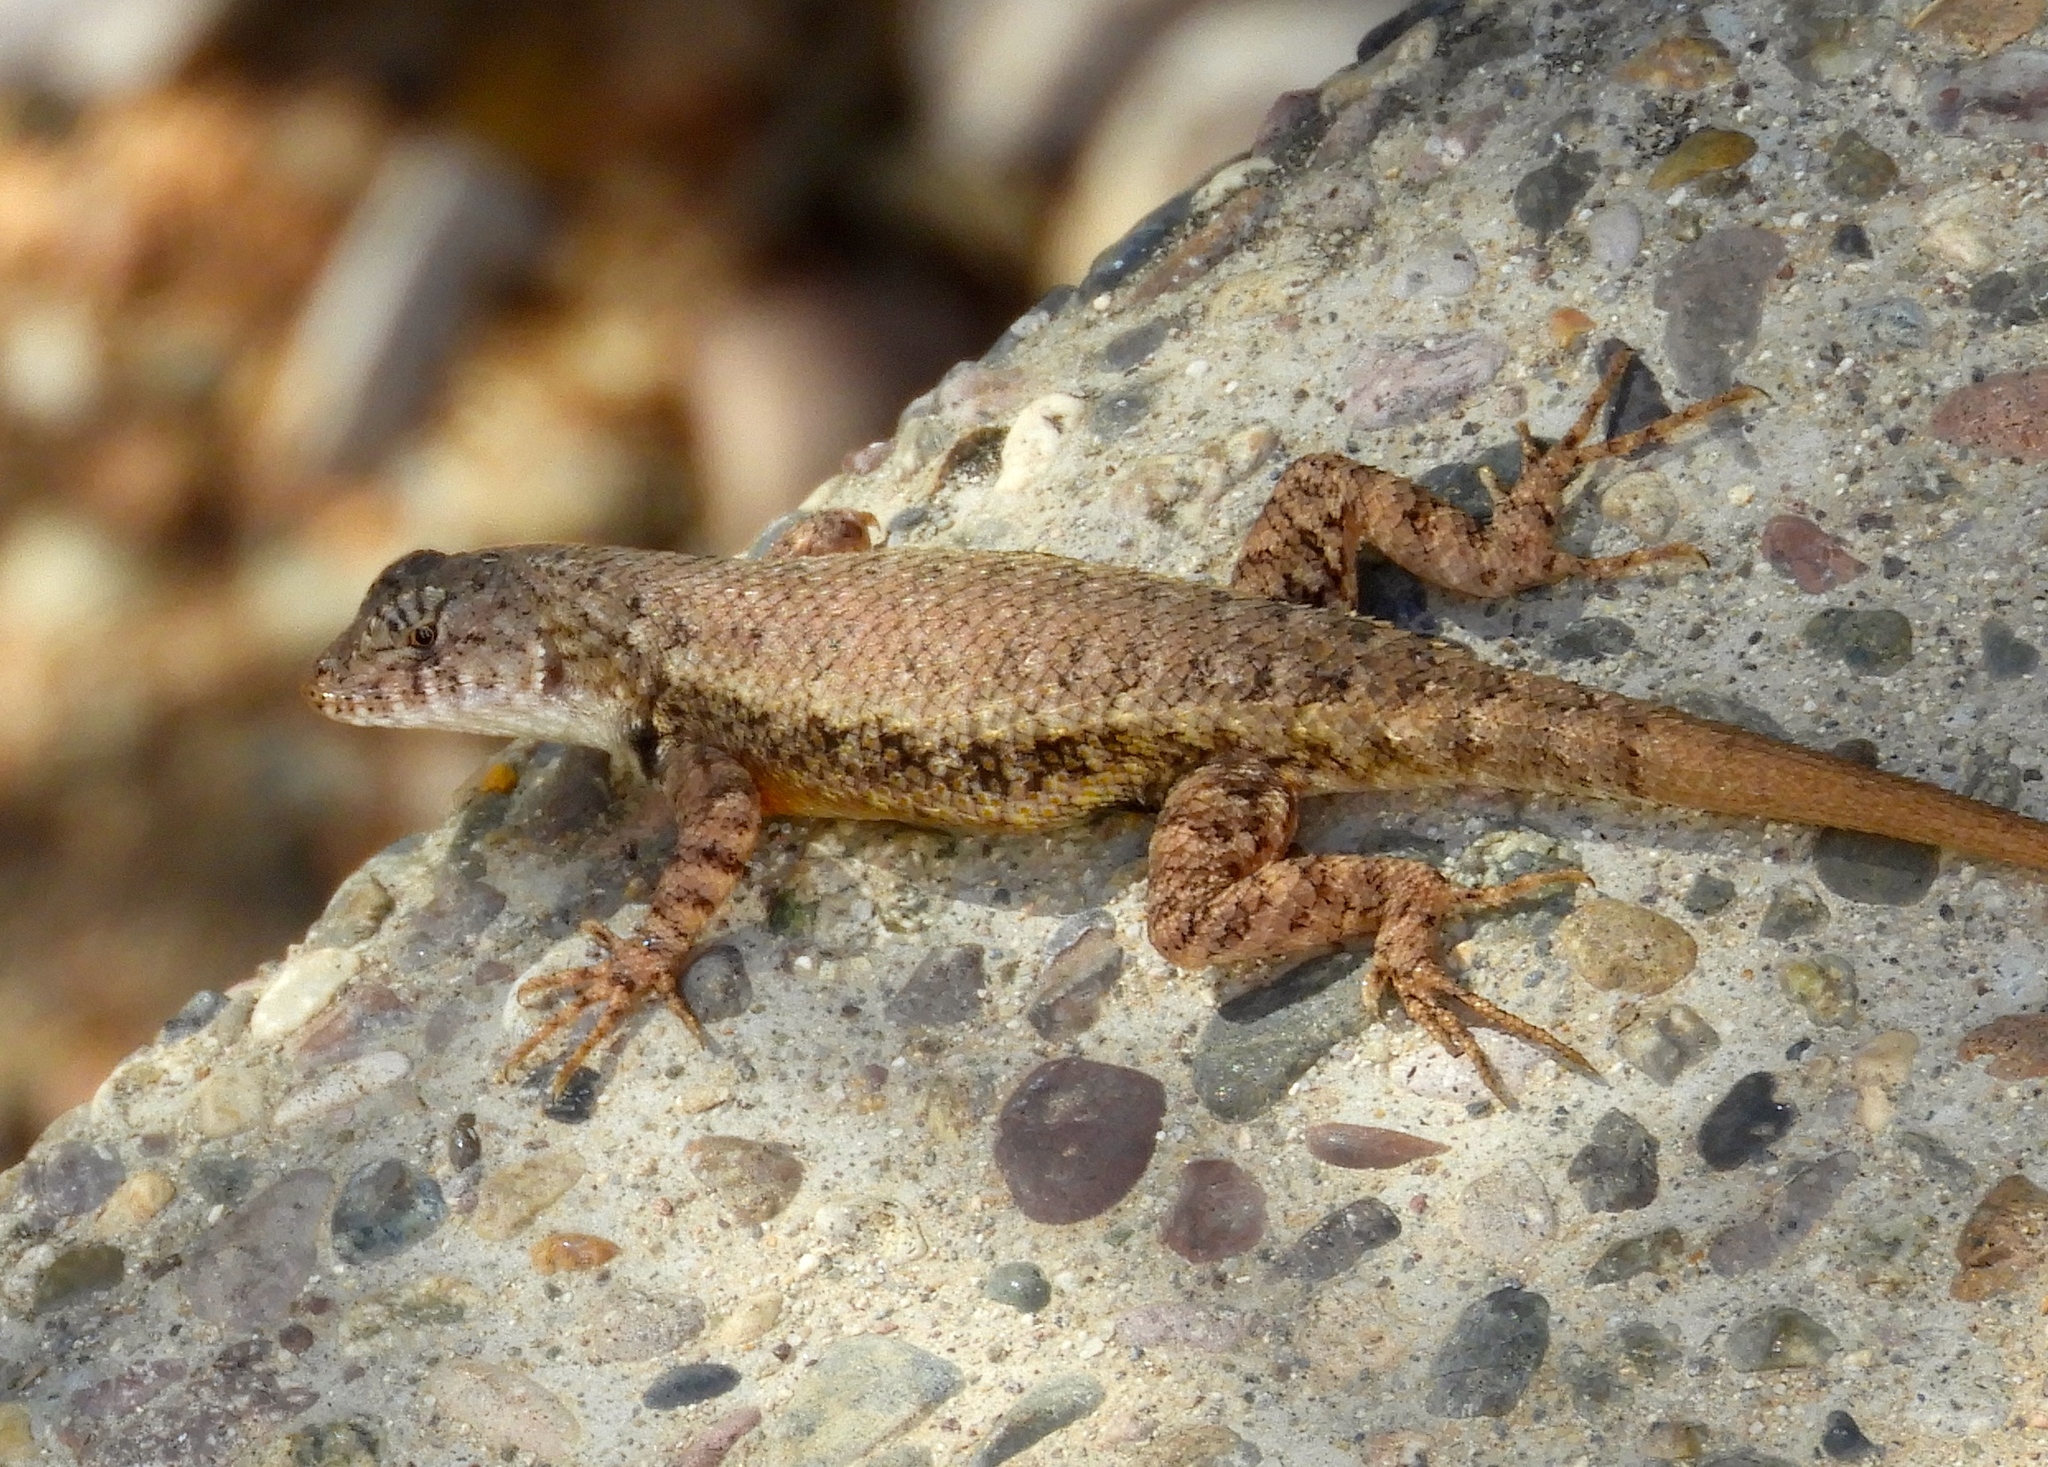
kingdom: Animalia
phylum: Chordata
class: Squamata
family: Phrynosomatidae
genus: Sceloporus
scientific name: Sceloporus nelsoni
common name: Nelson's spiny lizard
